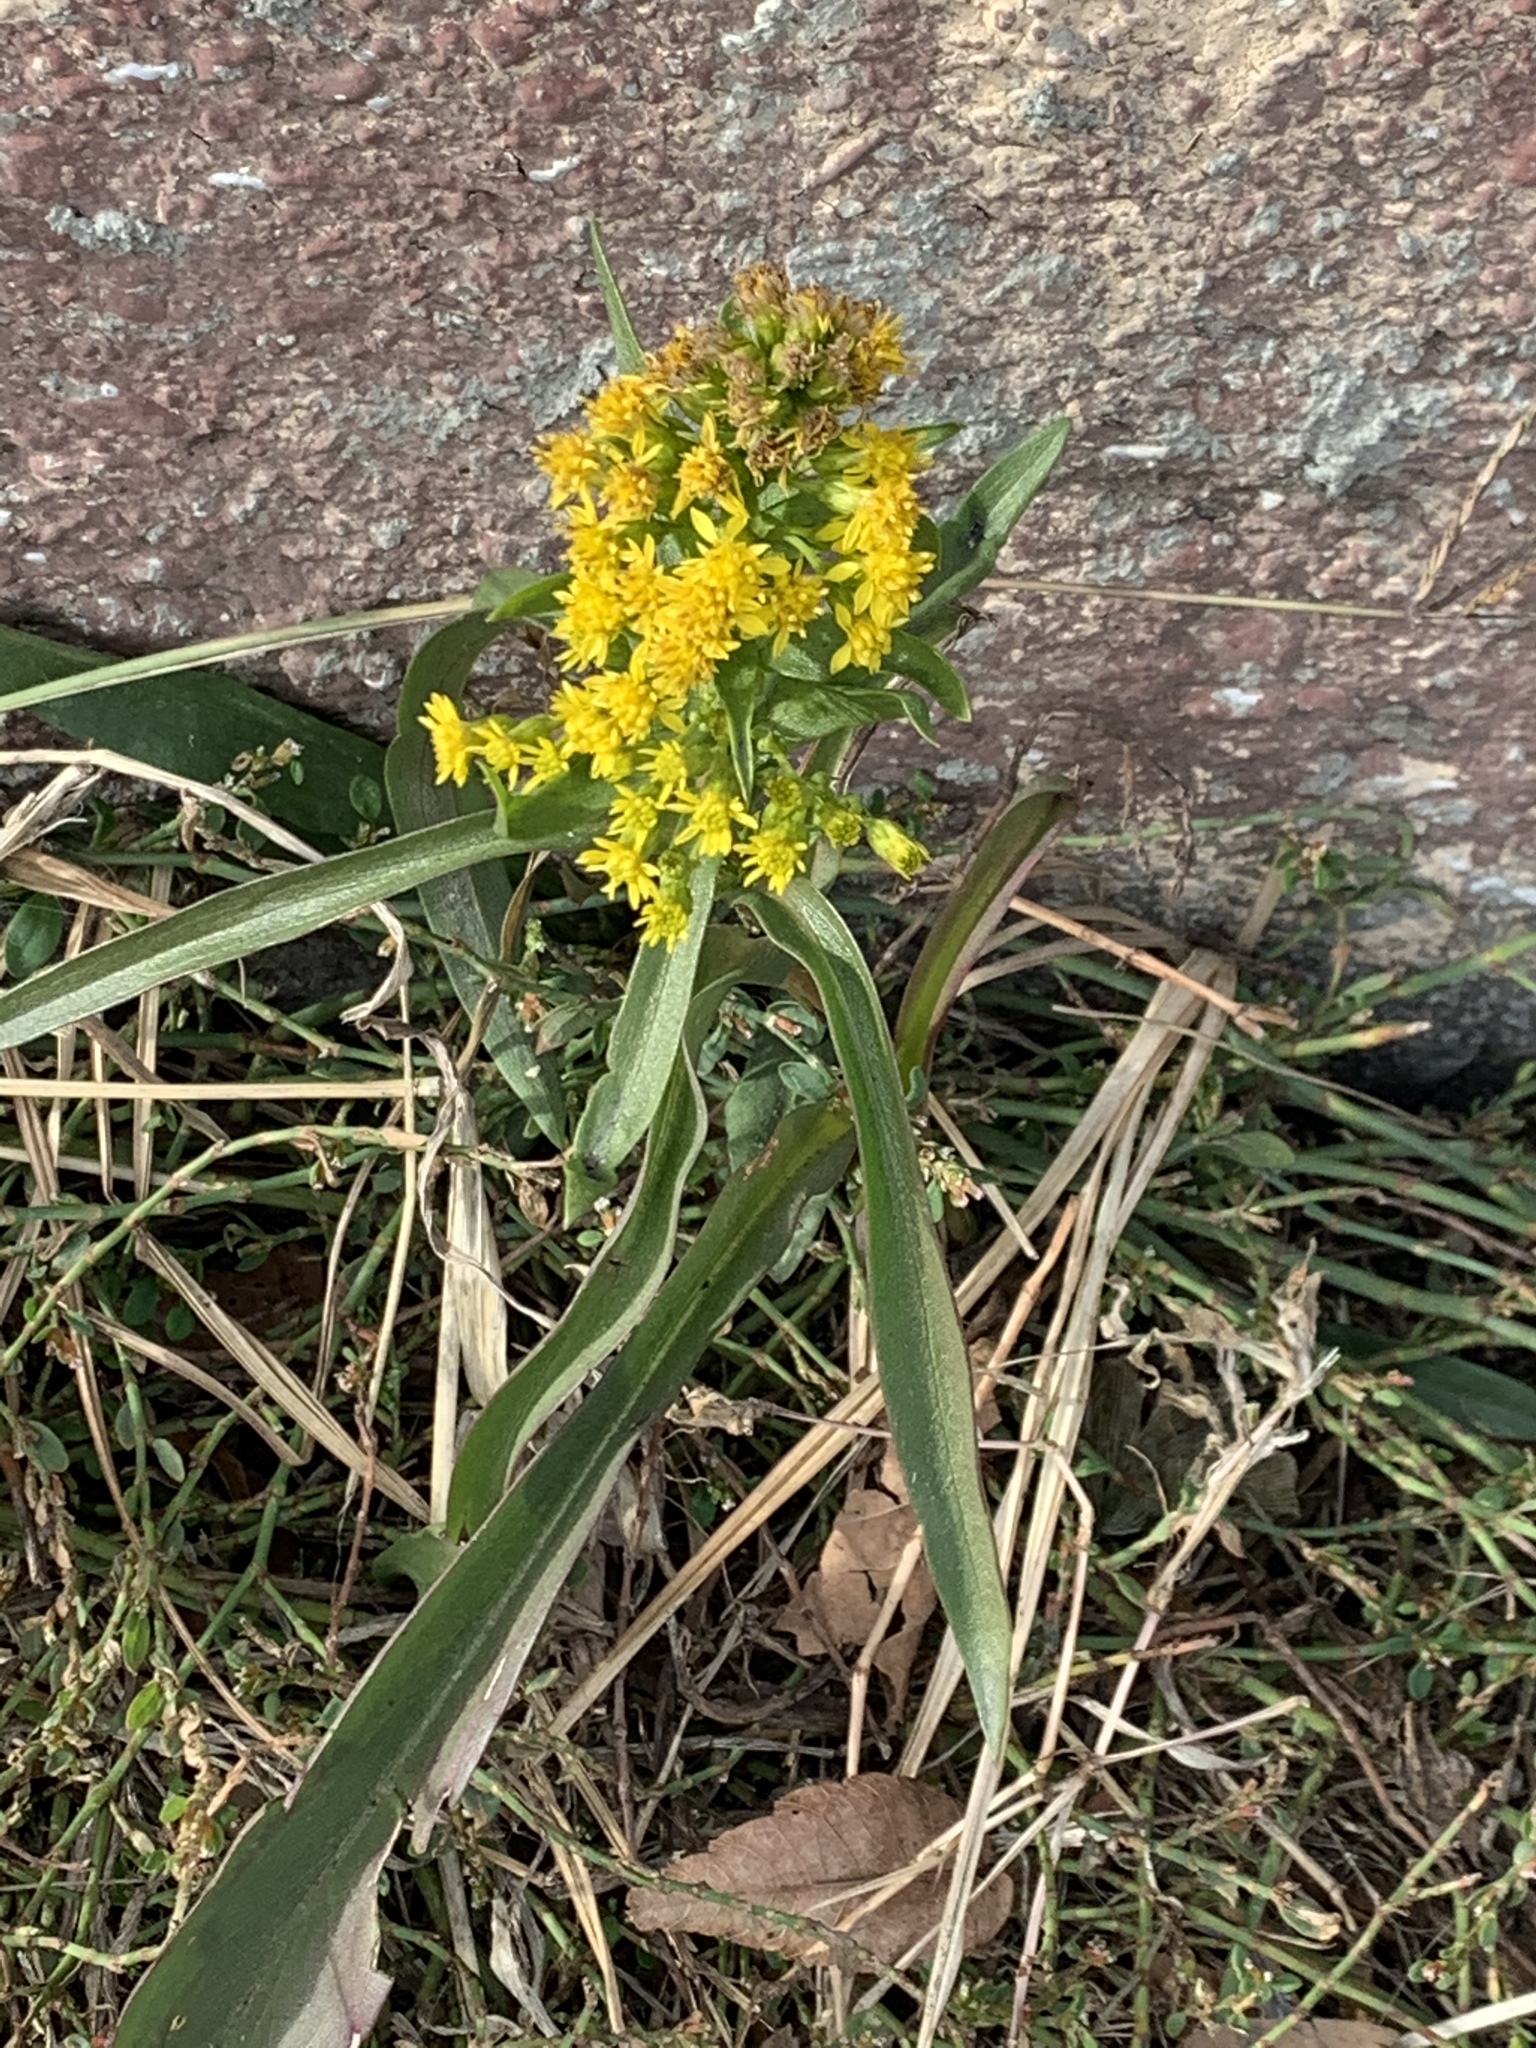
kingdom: Plantae
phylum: Tracheophyta
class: Magnoliopsida
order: Asterales
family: Asteraceae
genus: Solidago
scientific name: Solidago sempervirens
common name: Salt-marsh goldenrod
